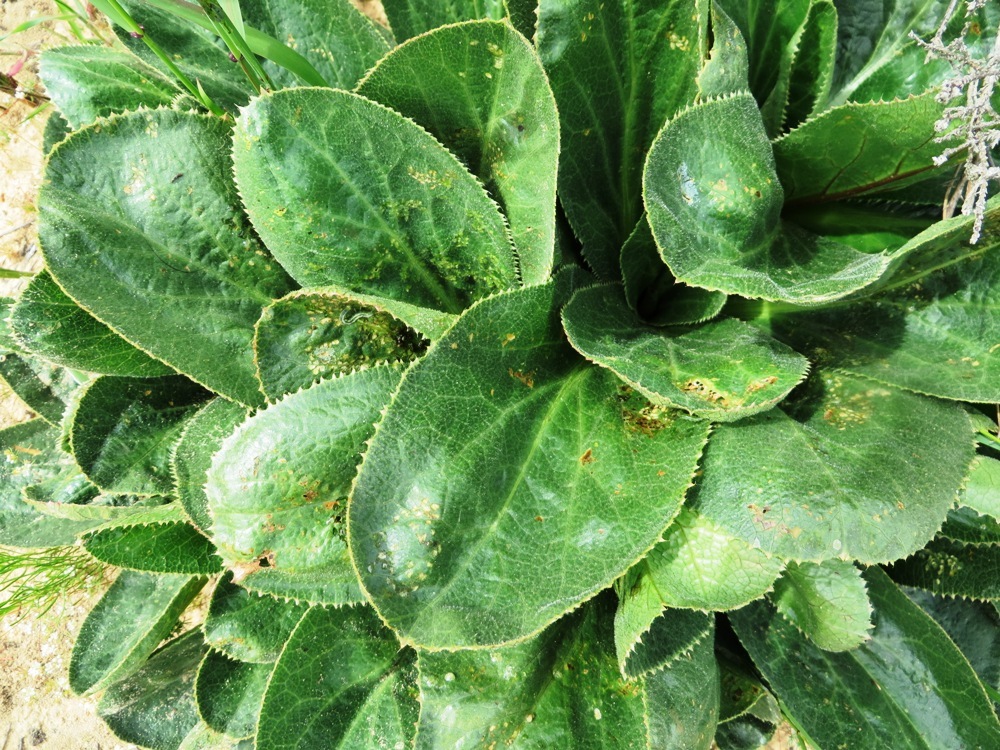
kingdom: Plantae
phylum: Tracheophyta
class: Magnoliopsida
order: Apiales
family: Apiaceae
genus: Lichtensteinia
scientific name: Lichtensteinia trifida
